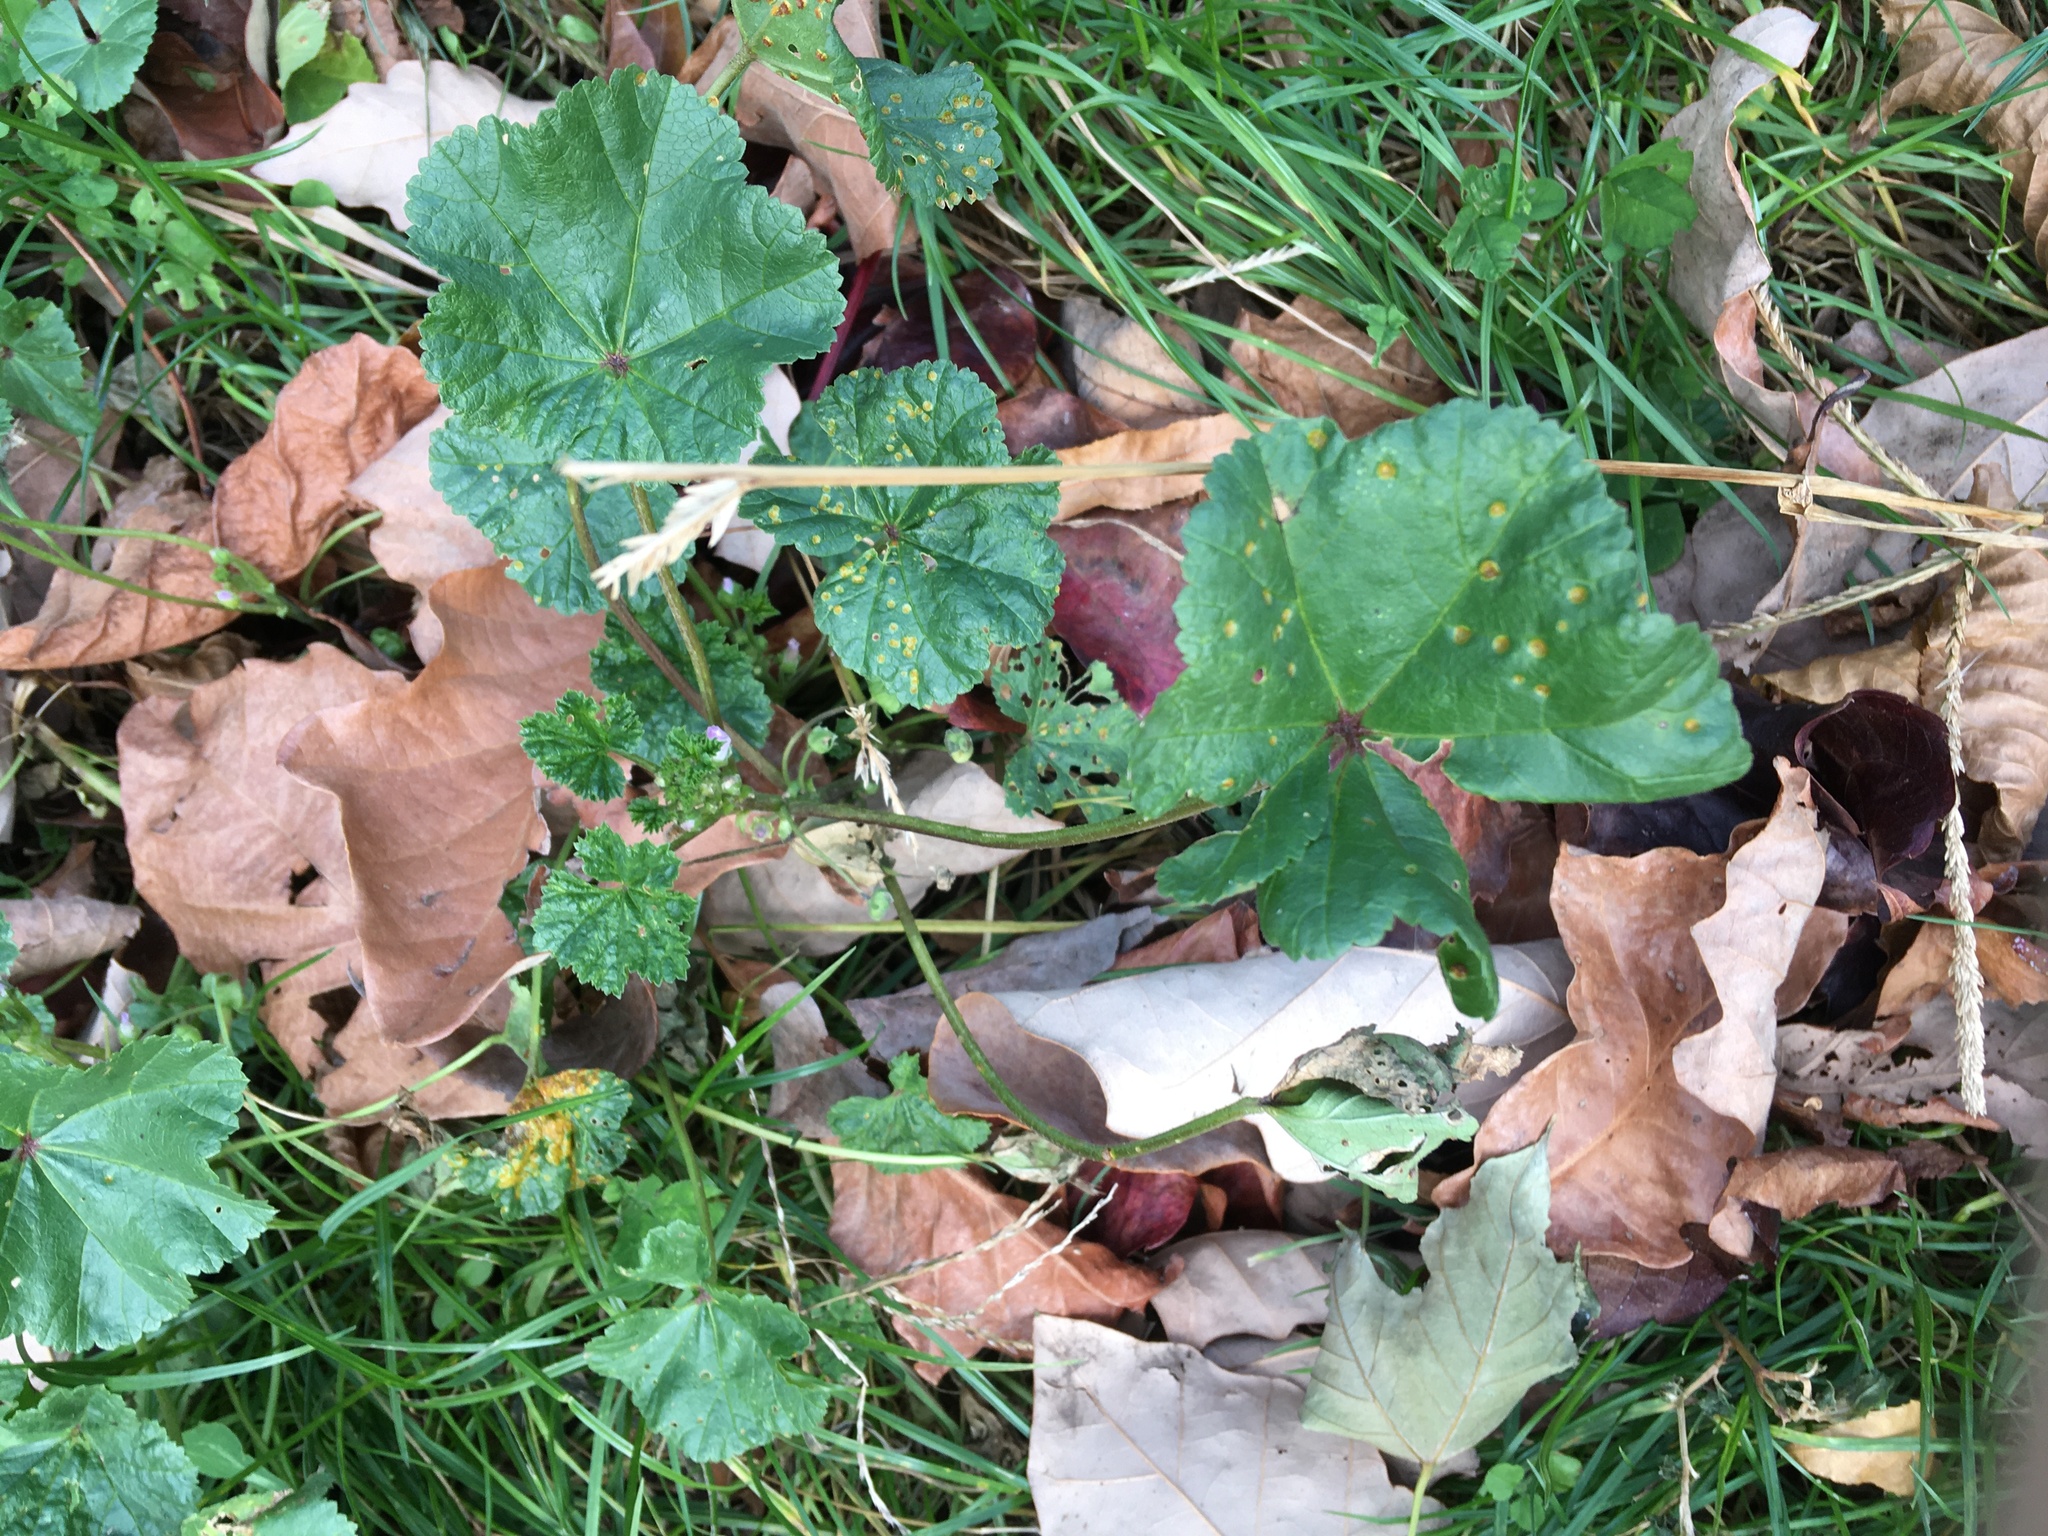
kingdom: Plantae
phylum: Tracheophyta
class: Magnoliopsida
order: Malvales
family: Malvaceae
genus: Malva
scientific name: Malva neglecta
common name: Common mallow
